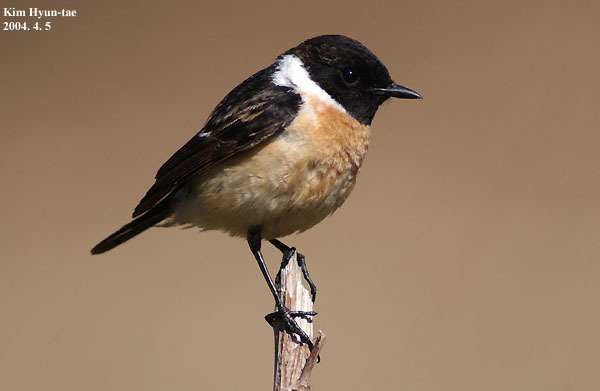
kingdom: Animalia
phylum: Chordata
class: Aves
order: Passeriformes
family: Muscicapidae
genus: Saxicola
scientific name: Saxicola stejnegeri
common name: Stejneger's stonechat
